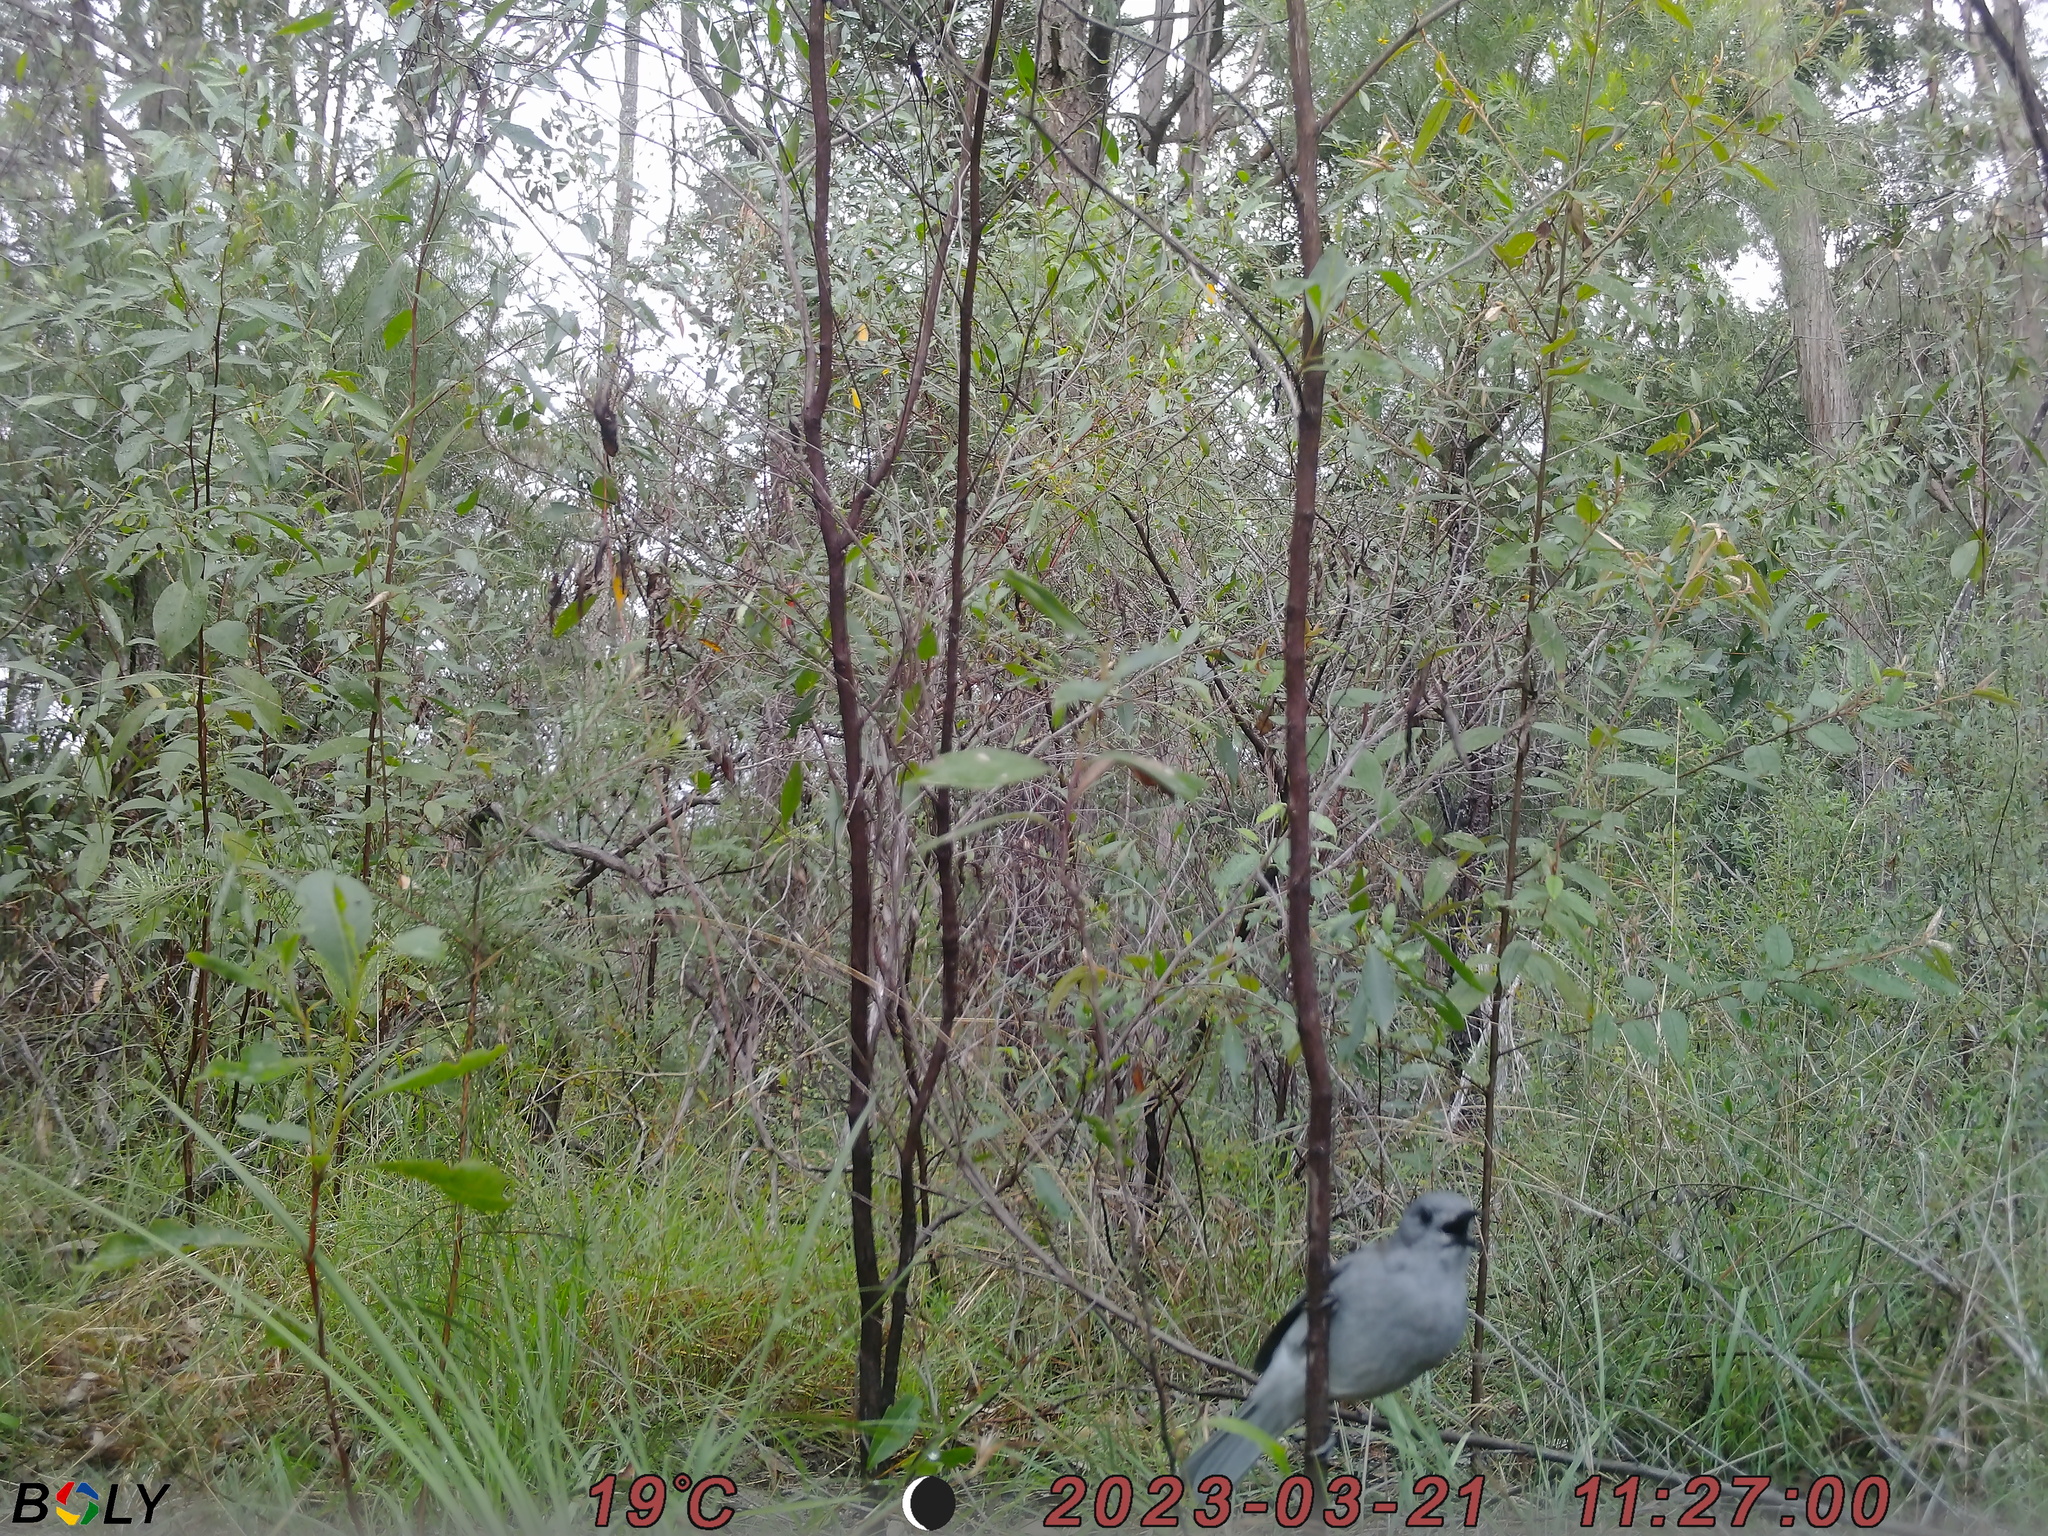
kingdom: Animalia
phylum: Chordata
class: Aves
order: Passeriformes
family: Pachycephalidae
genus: Colluricincla
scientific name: Colluricincla harmonica
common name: Grey shrikethrush
